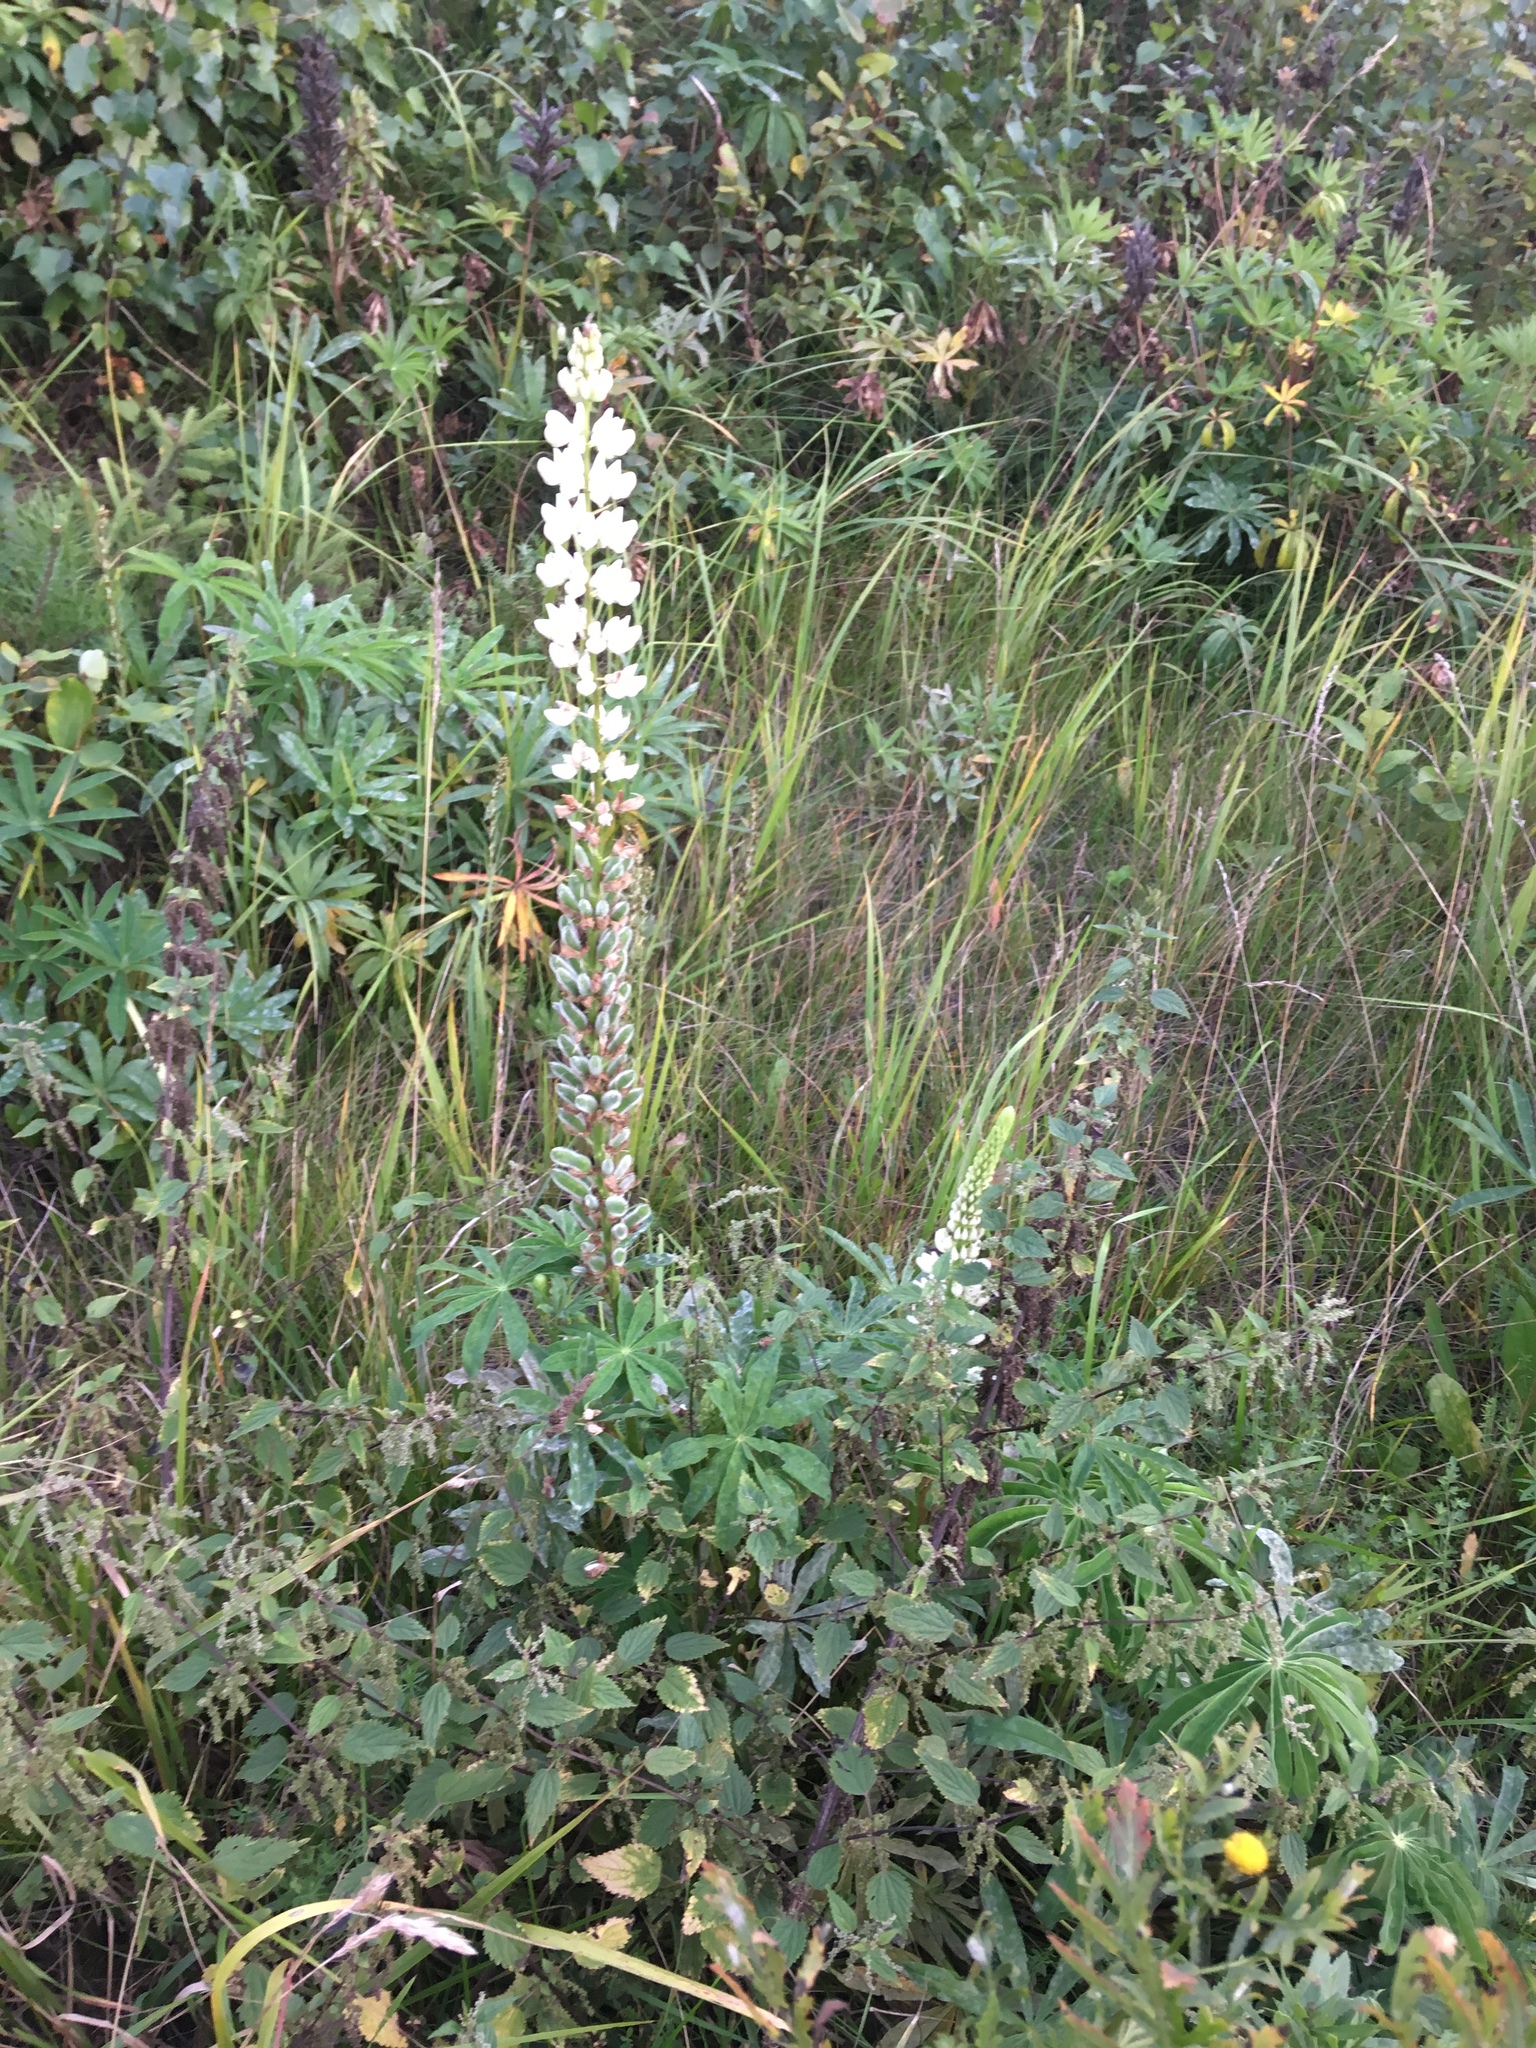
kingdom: Plantae
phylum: Tracheophyta
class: Magnoliopsida
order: Fabales
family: Fabaceae
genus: Lupinus
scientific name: Lupinus polyphyllus
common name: Garden lupin
